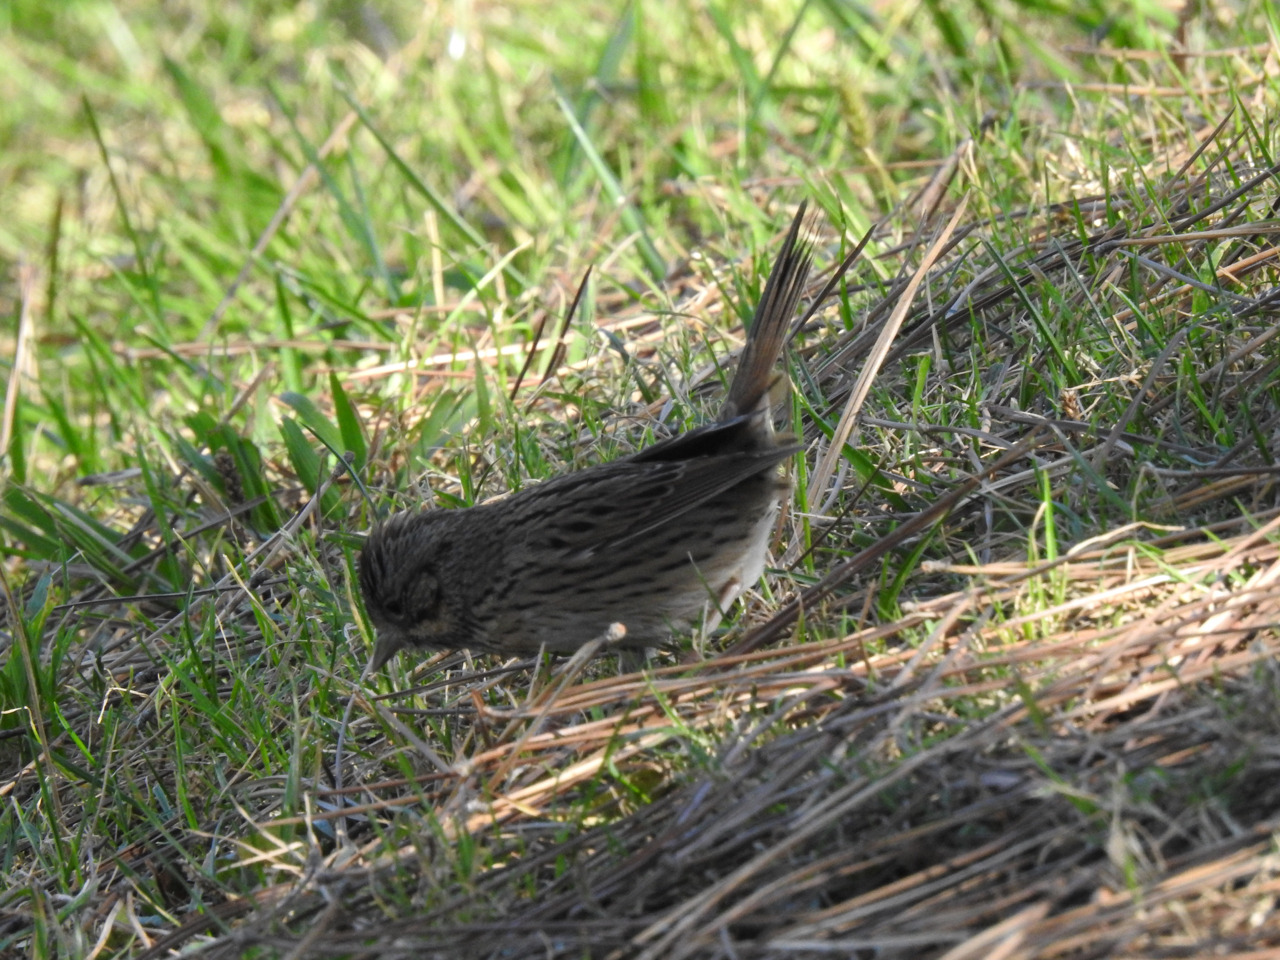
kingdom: Animalia
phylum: Chordata
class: Aves
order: Passeriformes
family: Passerellidae
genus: Melospiza
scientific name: Melospiza lincolnii
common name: Lincoln's sparrow
